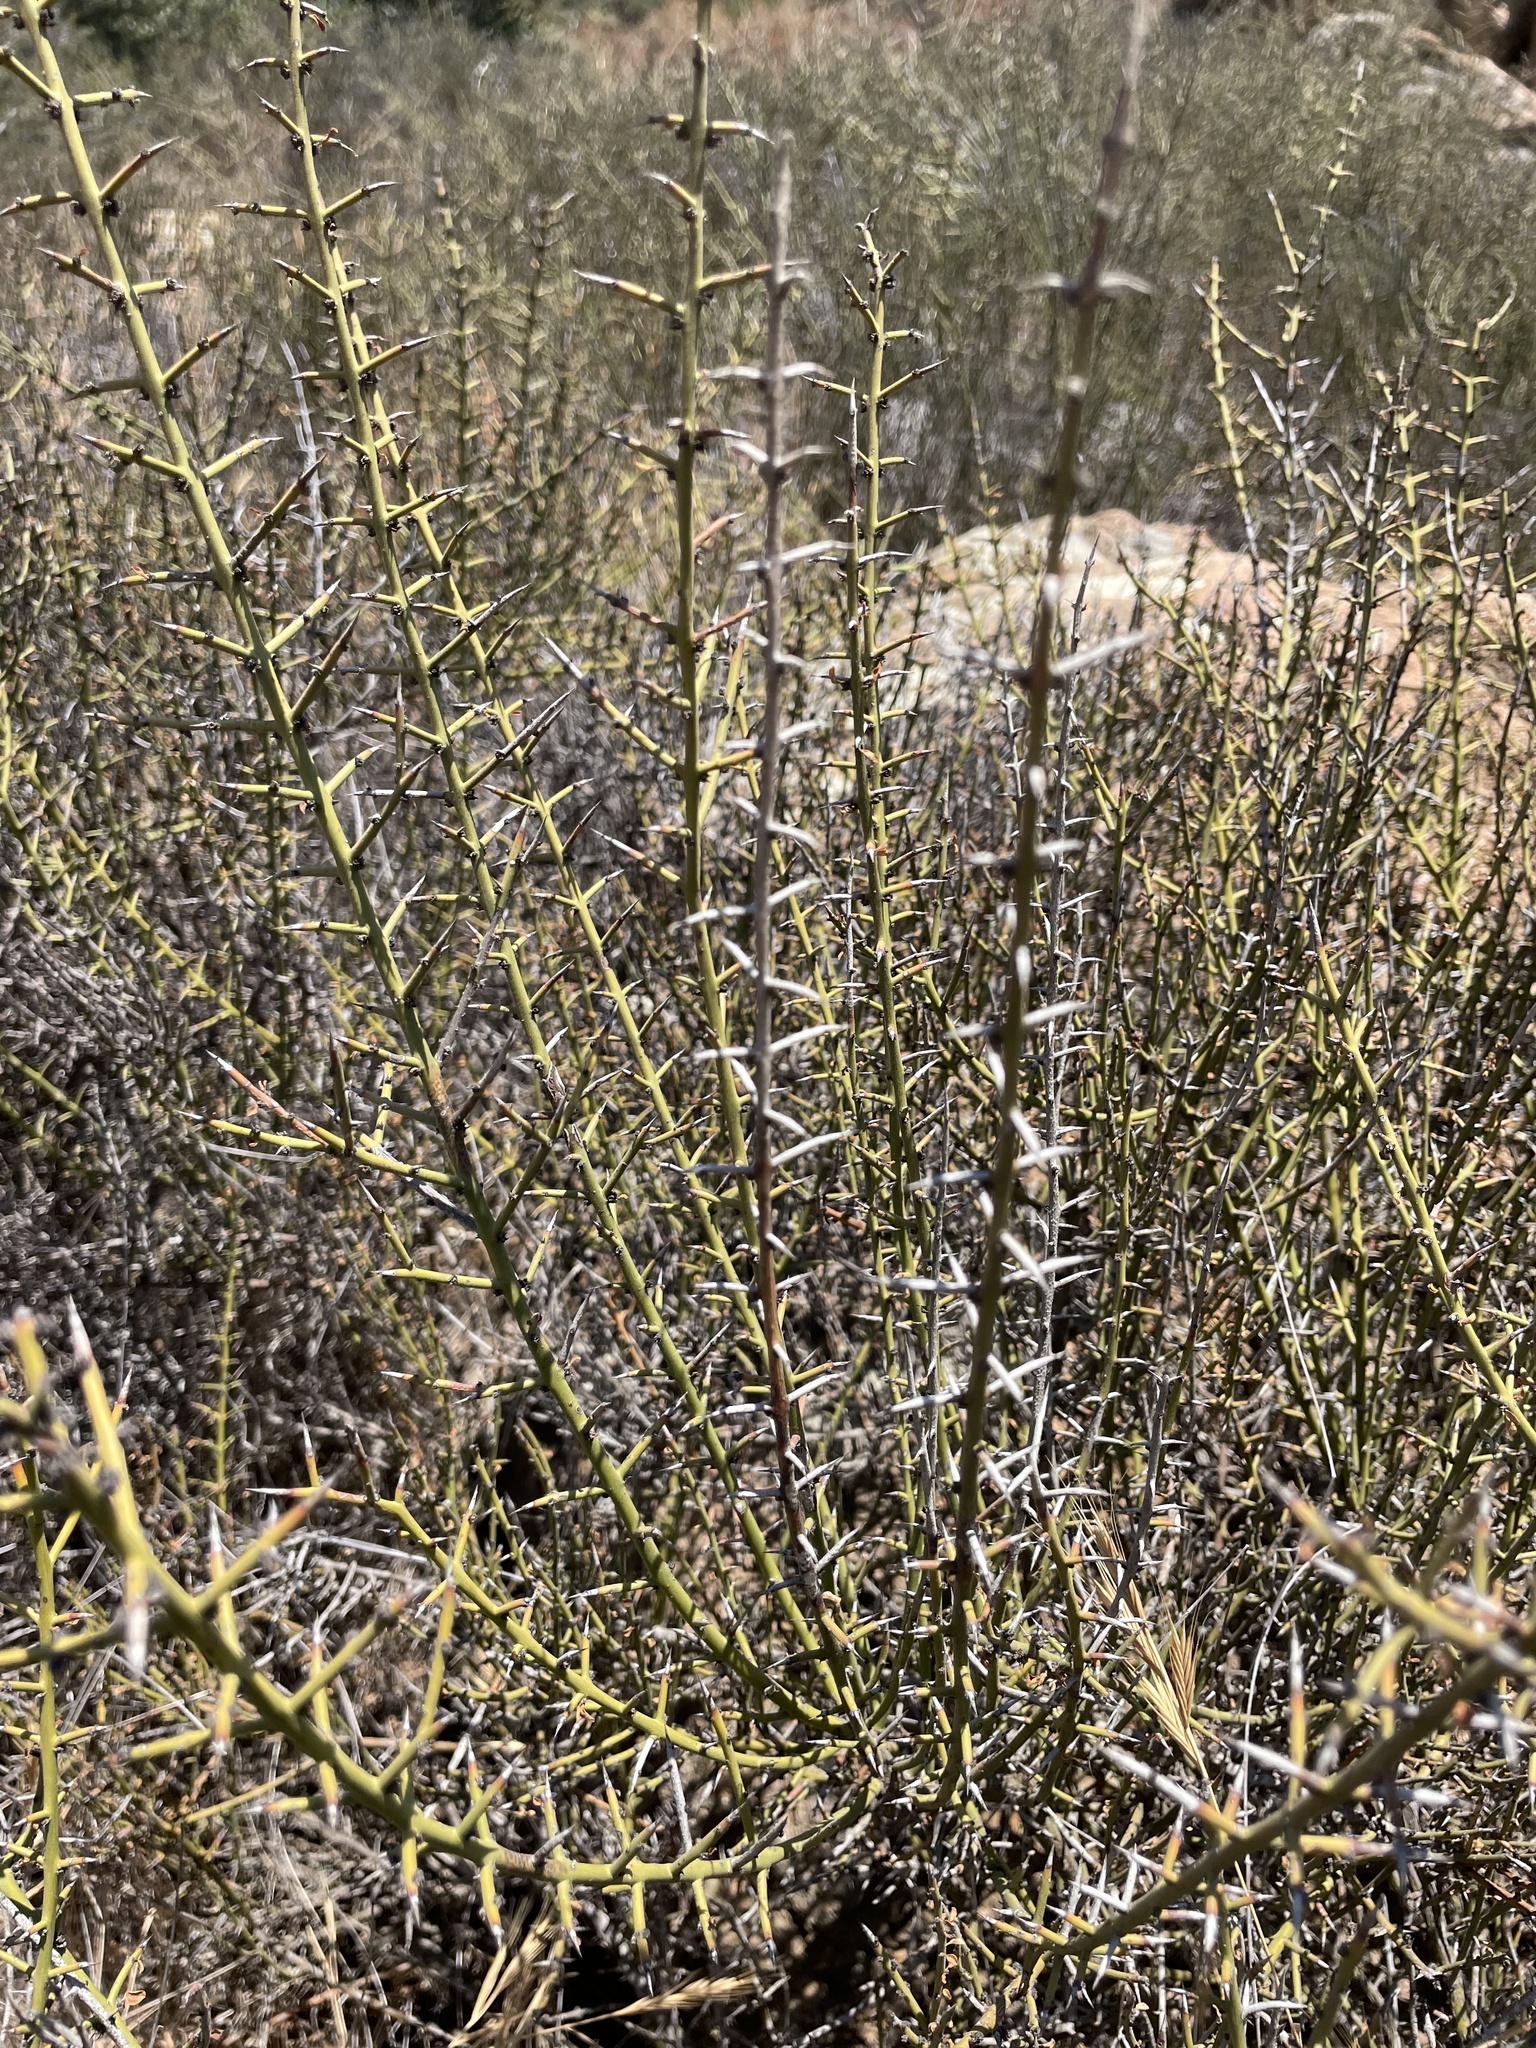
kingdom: Plantae
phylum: Tracheophyta
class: Magnoliopsida
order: Rosales
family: Rhamnaceae
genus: Adolphia
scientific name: Adolphia californica
